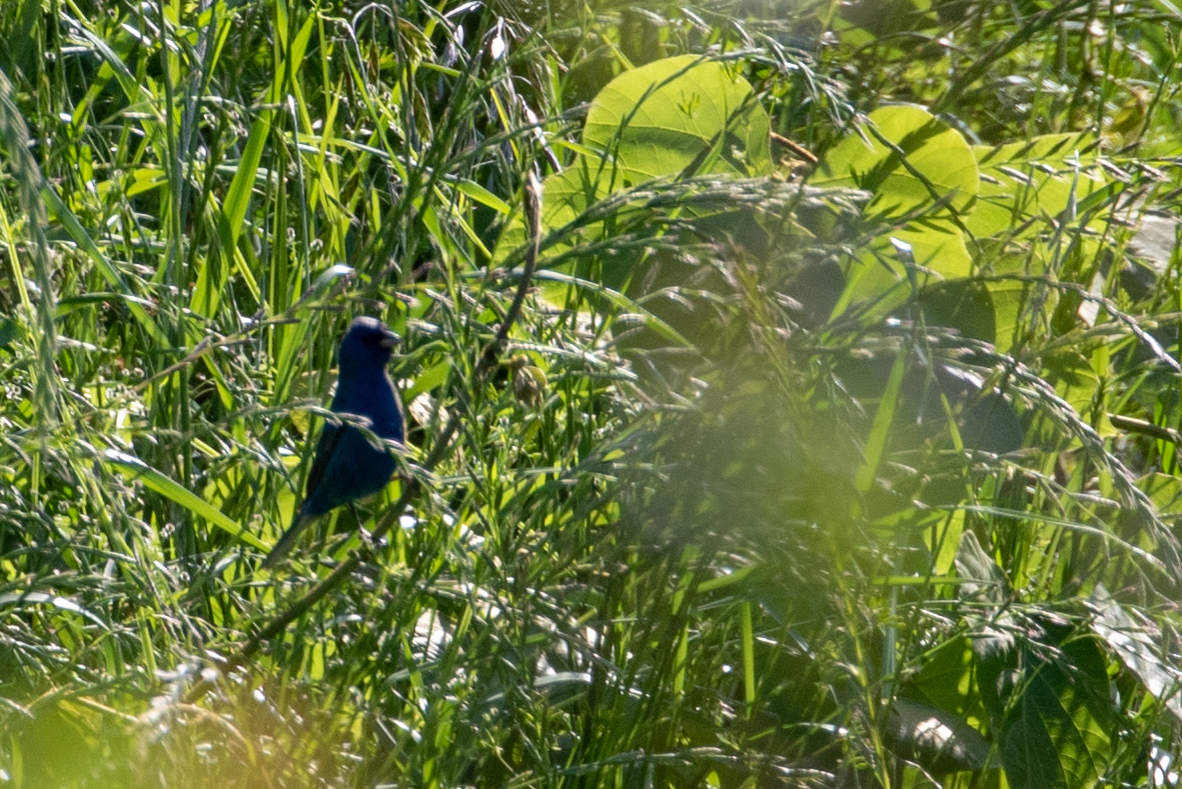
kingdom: Animalia
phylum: Chordata
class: Aves
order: Passeriformes
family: Cardinalidae
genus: Passerina
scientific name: Passerina cyanea
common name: Indigo bunting
